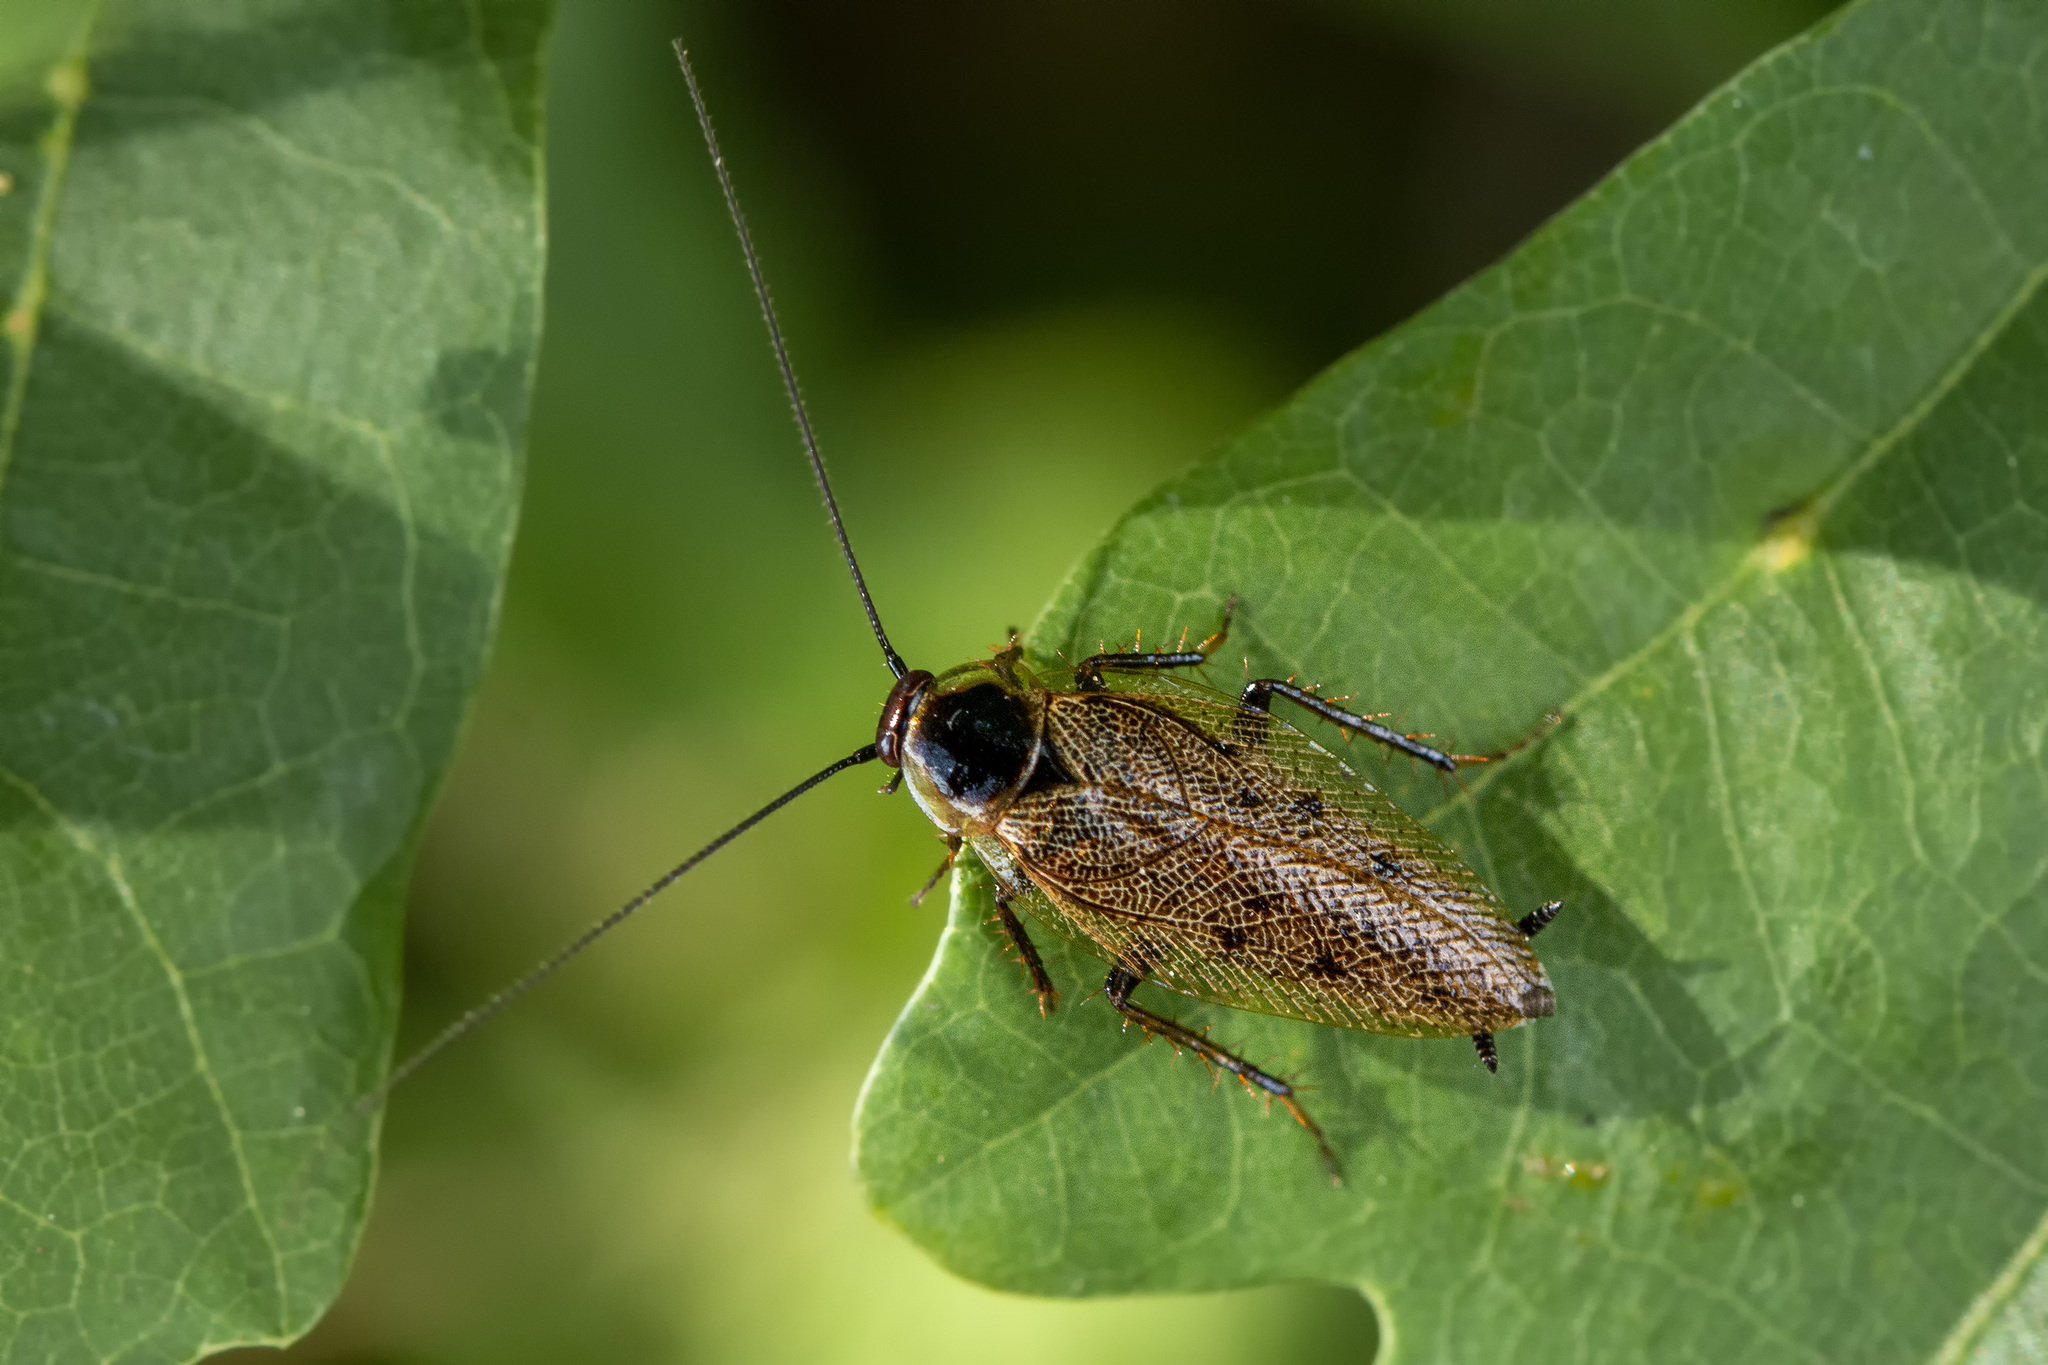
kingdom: Animalia
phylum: Arthropoda
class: Insecta
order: Blattodea
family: Ectobiidae
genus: Ectobius
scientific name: Ectobius lapponicus
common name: Dusky cockroach
